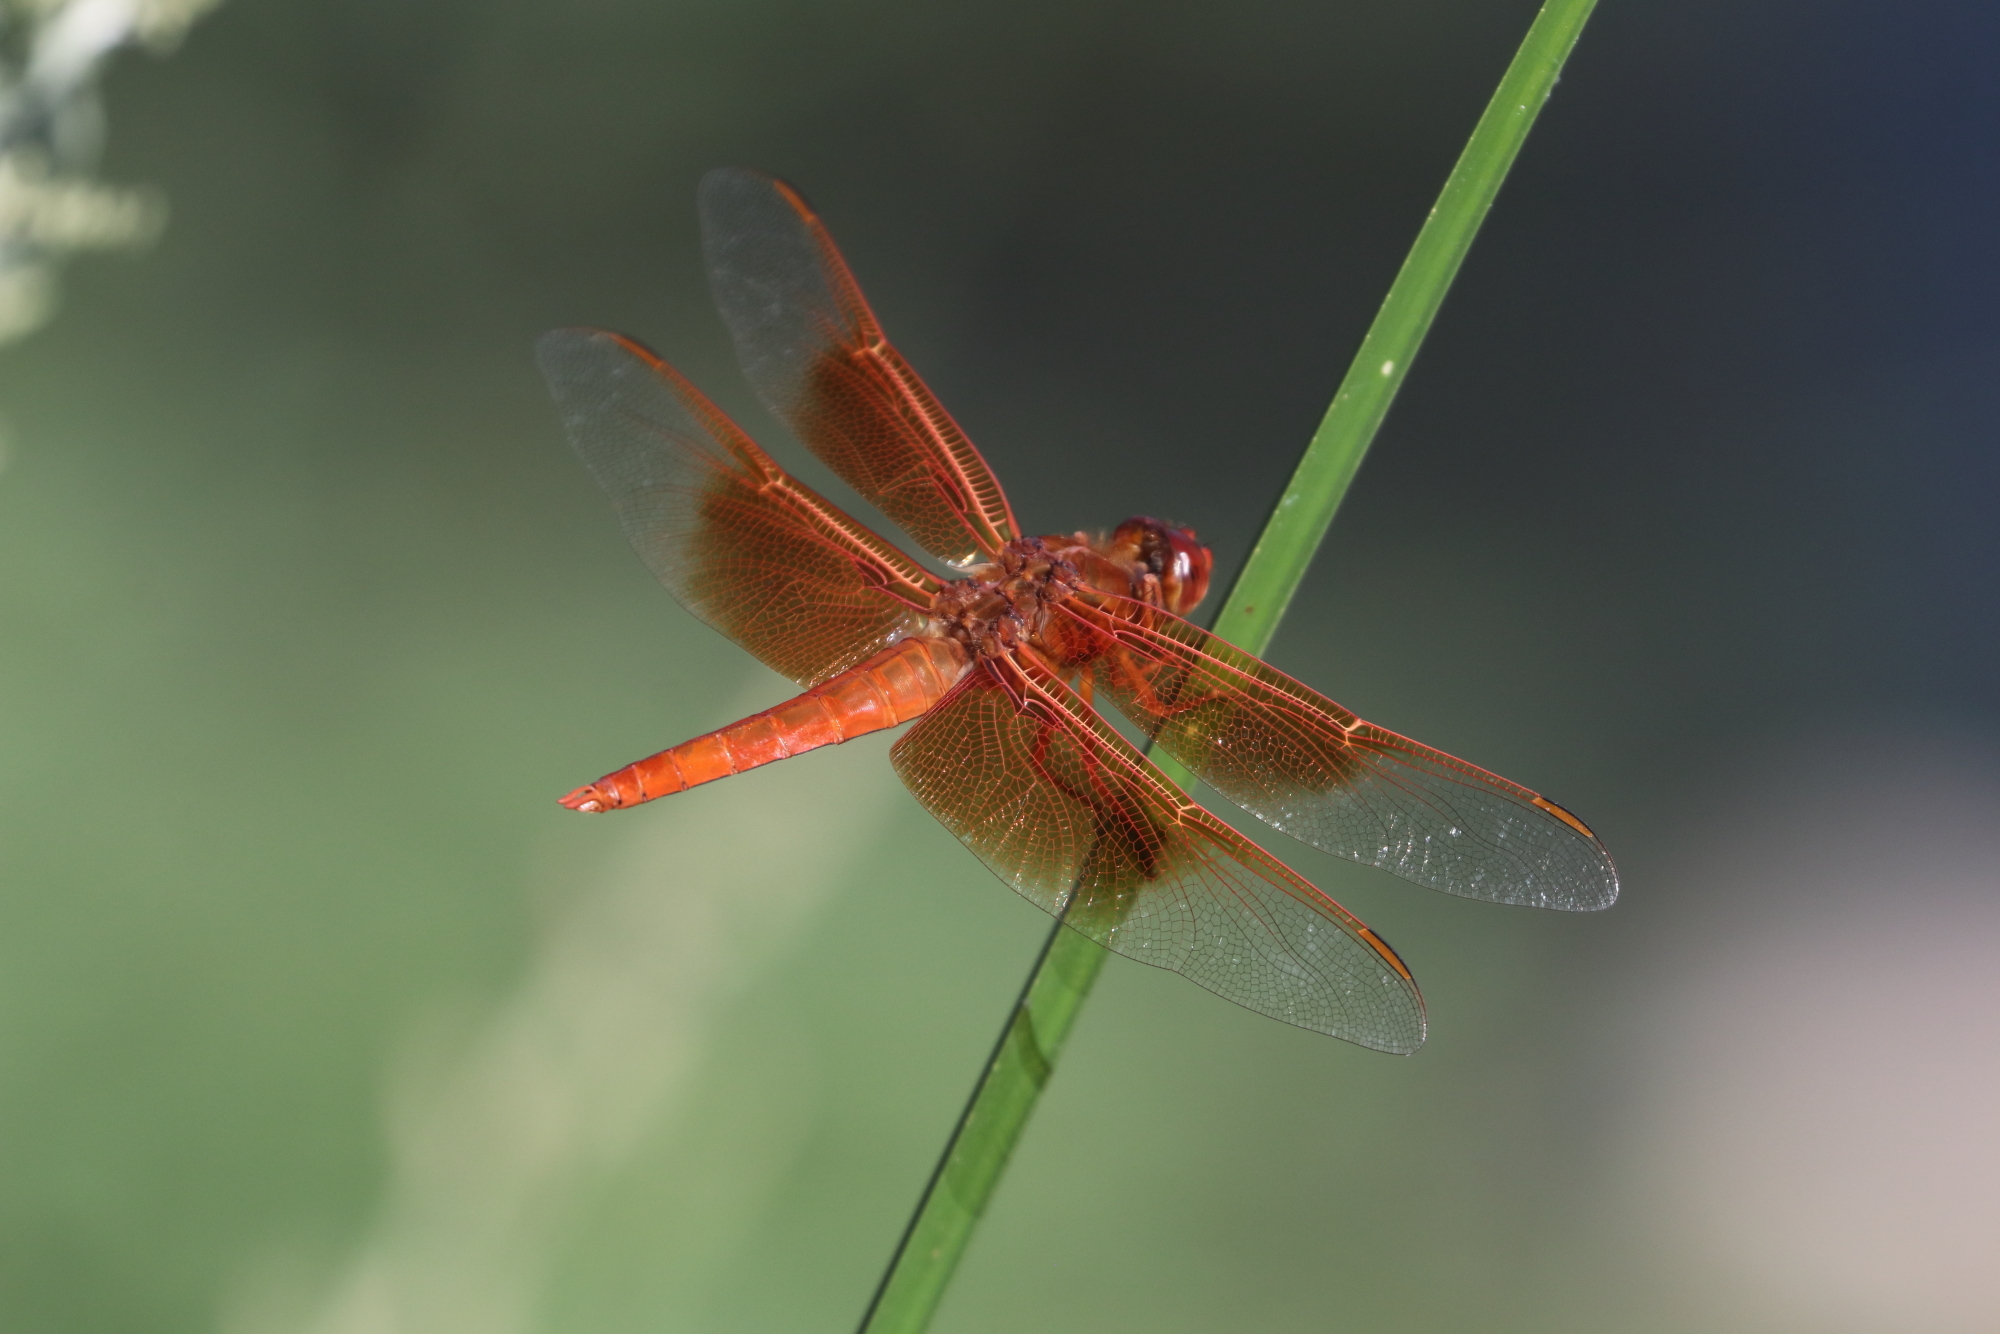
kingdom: Animalia
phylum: Arthropoda
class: Insecta
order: Odonata
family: Libellulidae
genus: Libellula
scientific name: Libellula saturata
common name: Flame skimmer
